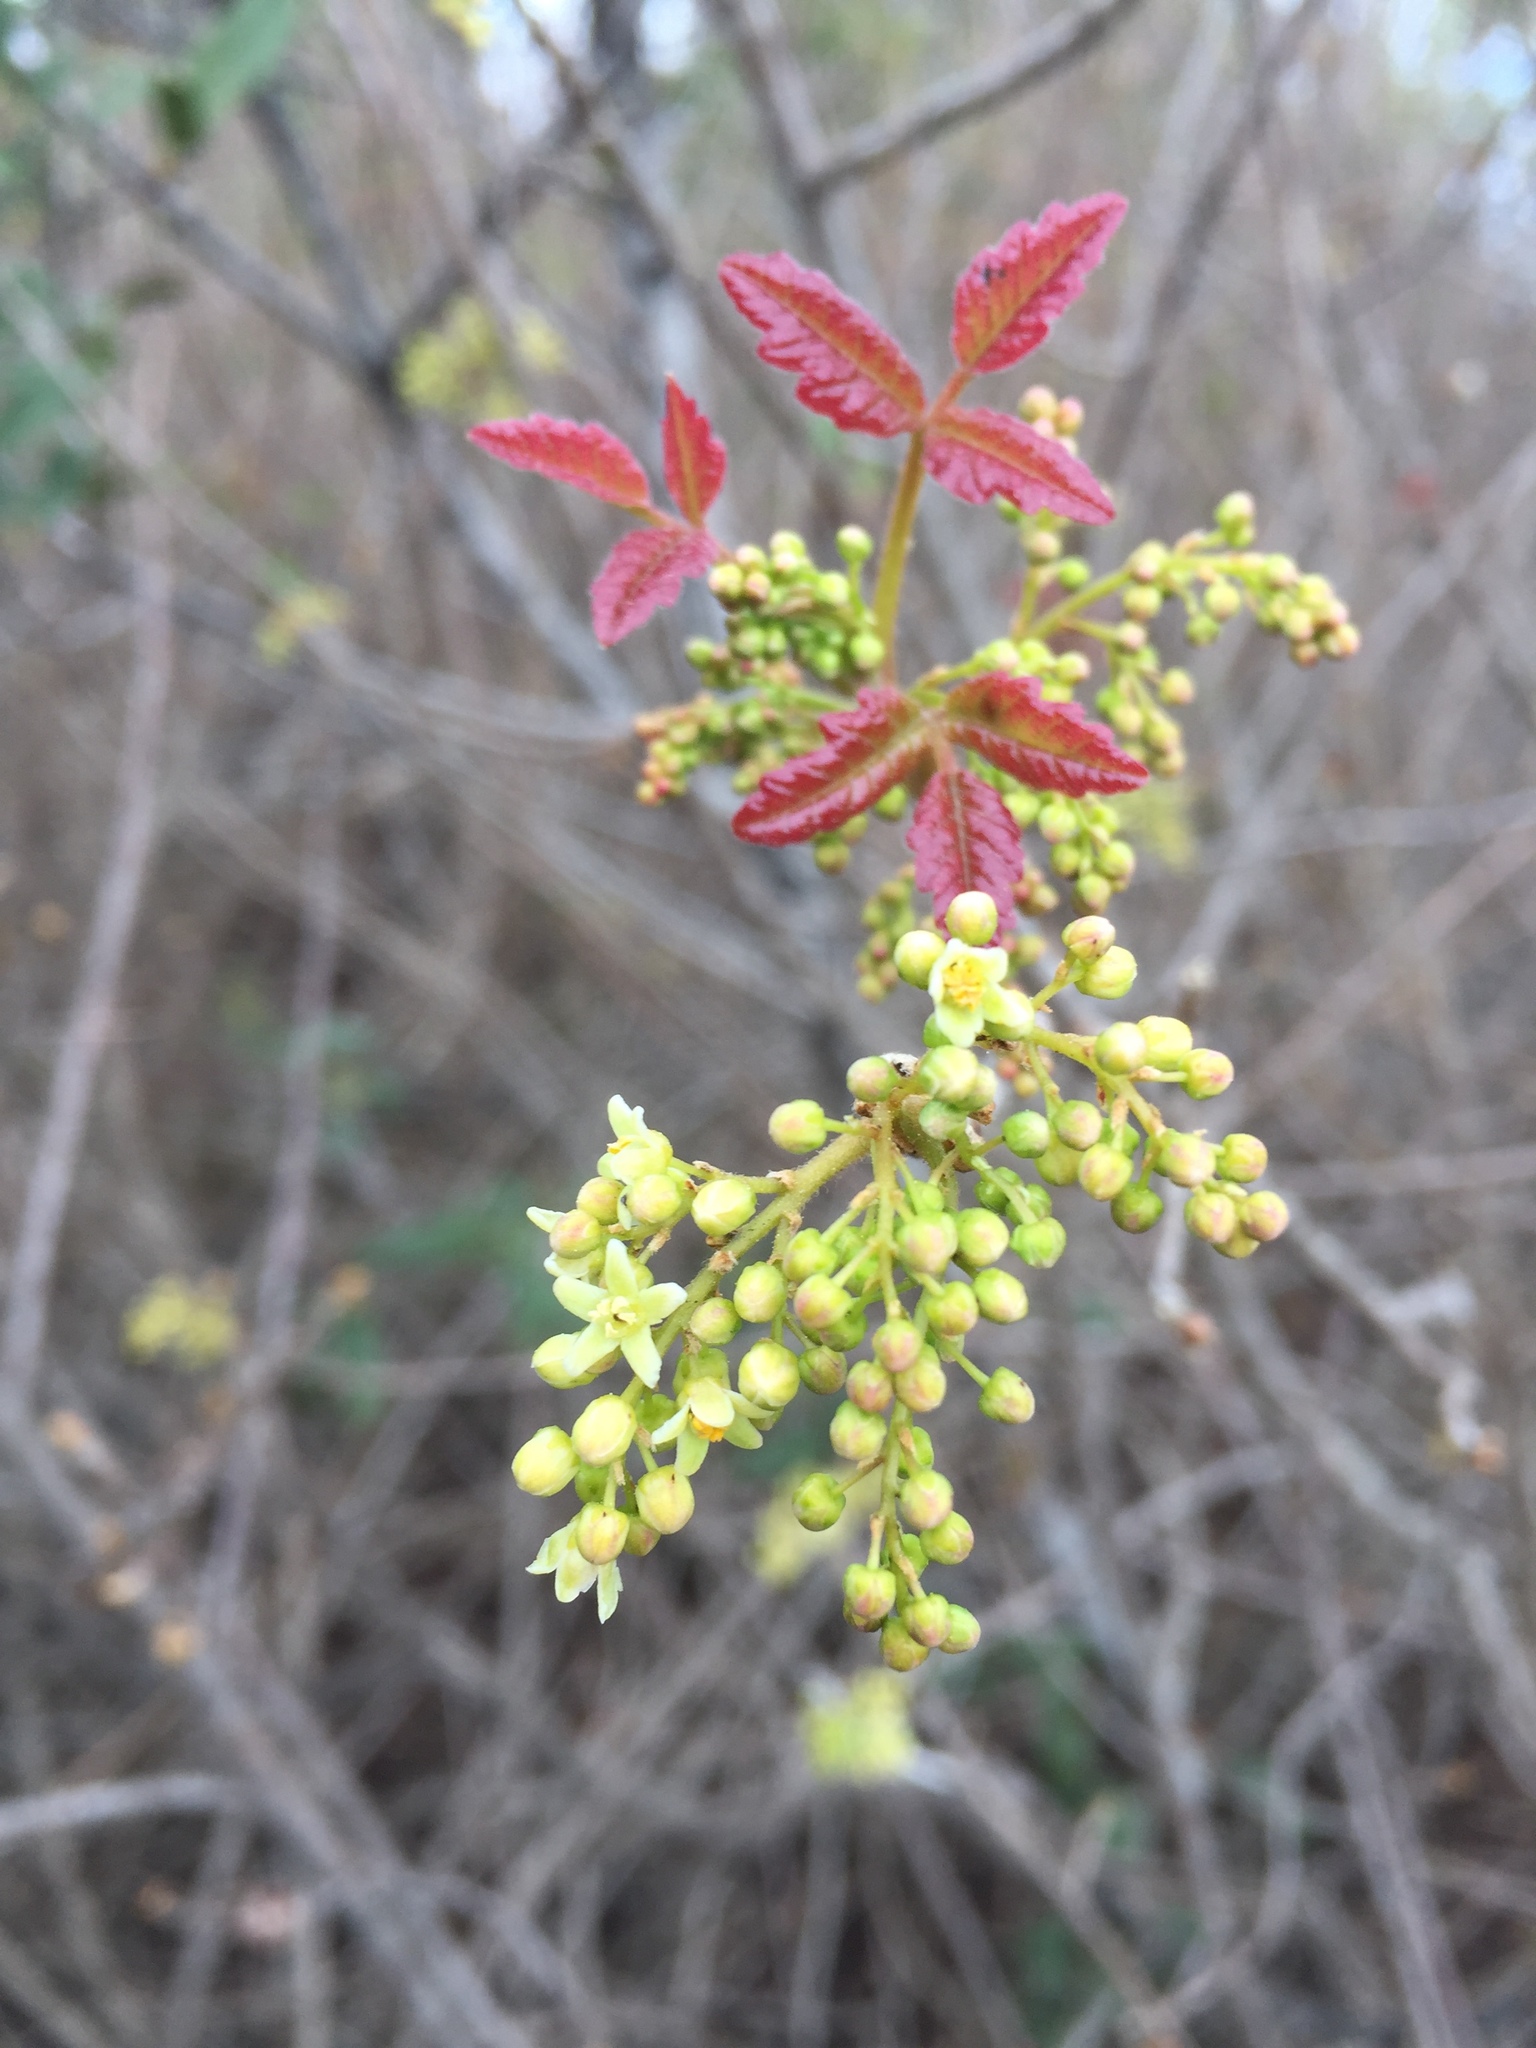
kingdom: Plantae
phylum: Tracheophyta
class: Magnoliopsida
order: Sapindales
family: Anacardiaceae
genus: Toxicodendron
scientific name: Toxicodendron diversilobum
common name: Pacific poison-oak
